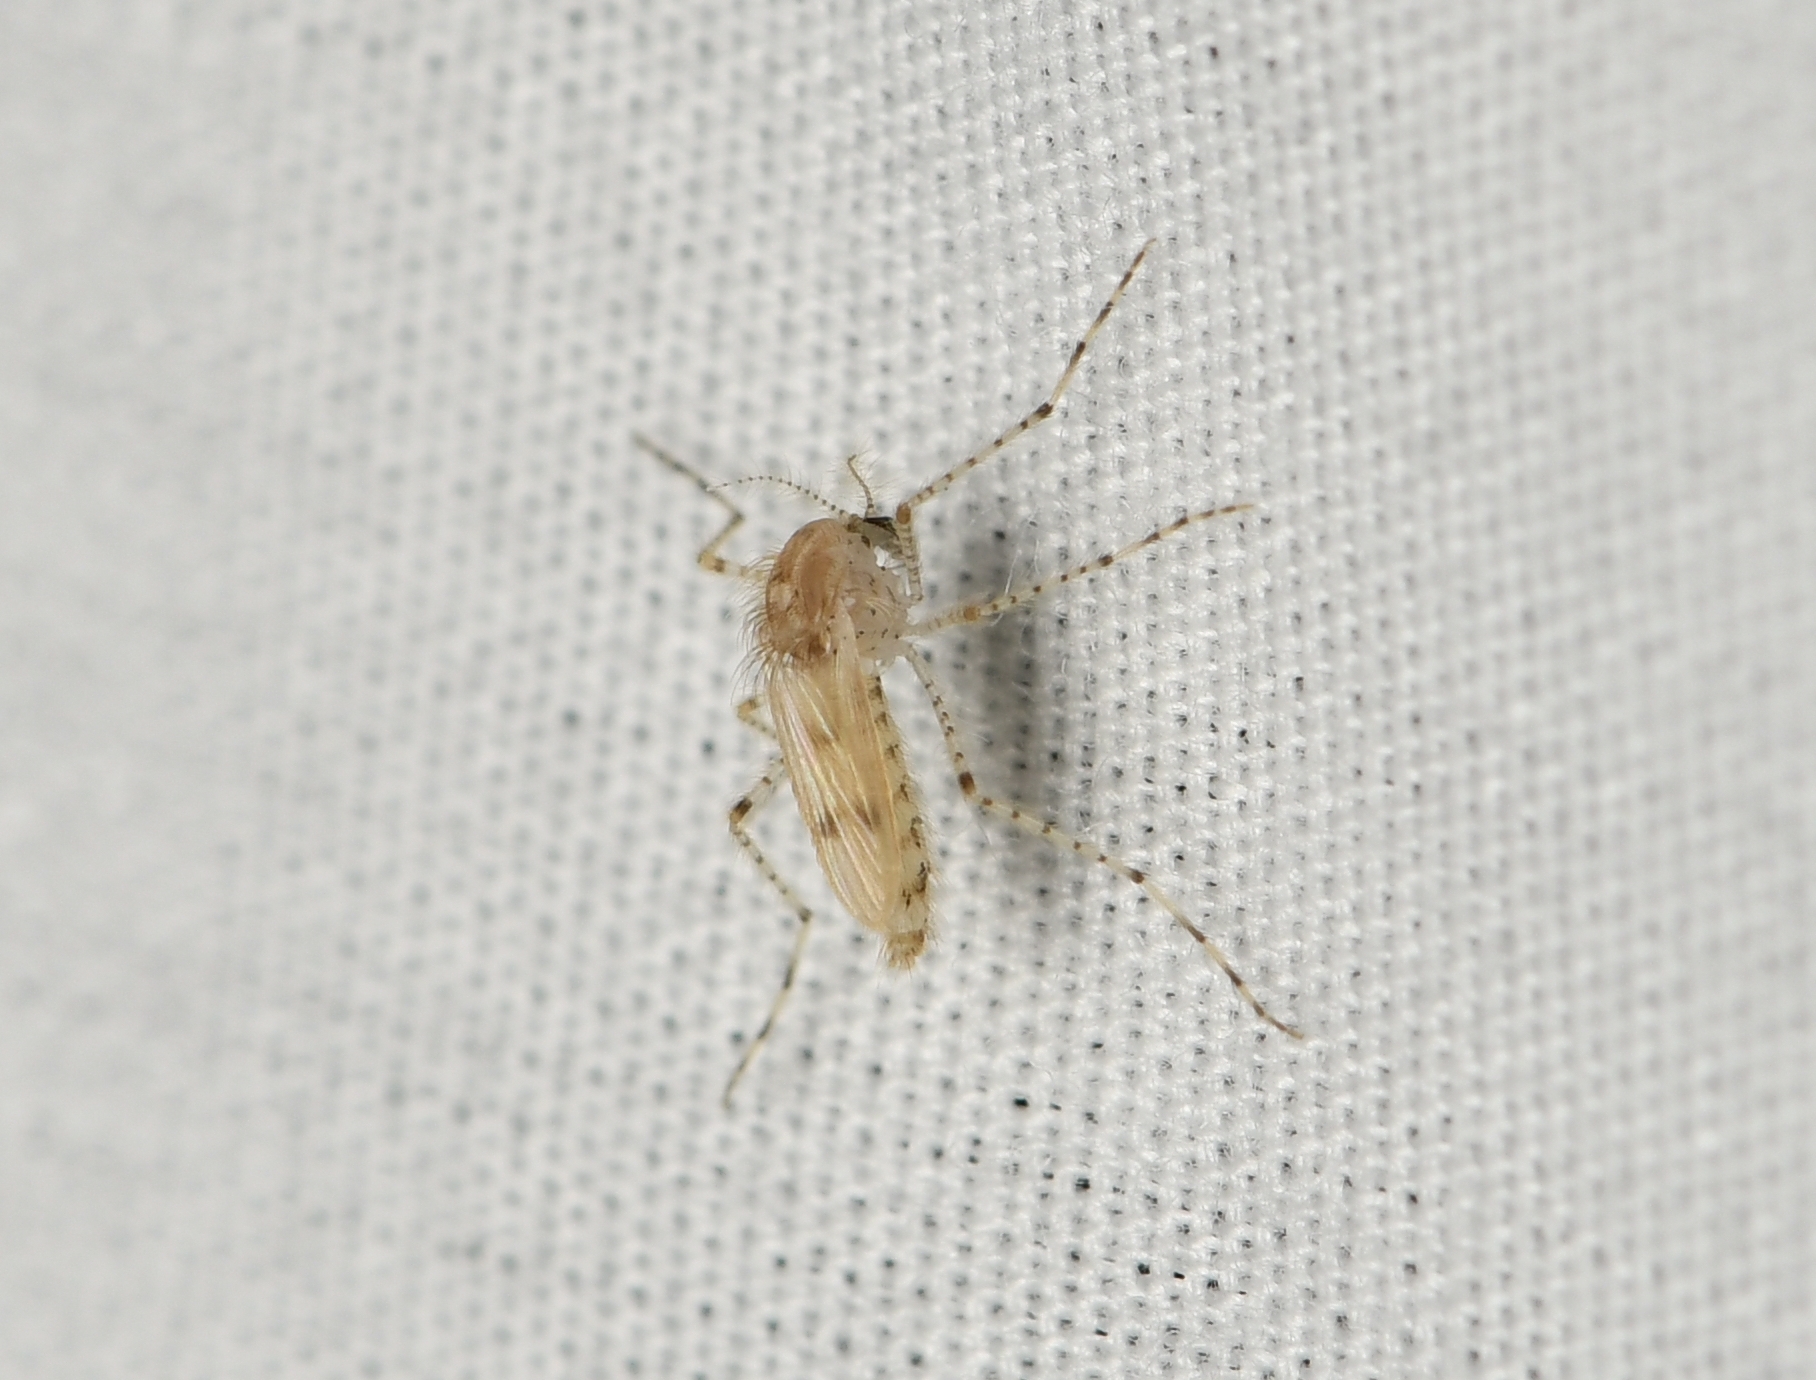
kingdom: Animalia
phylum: Arthropoda
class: Insecta
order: Diptera
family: Chaoboridae
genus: Chaoborus
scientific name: Chaoborus punctipennis
